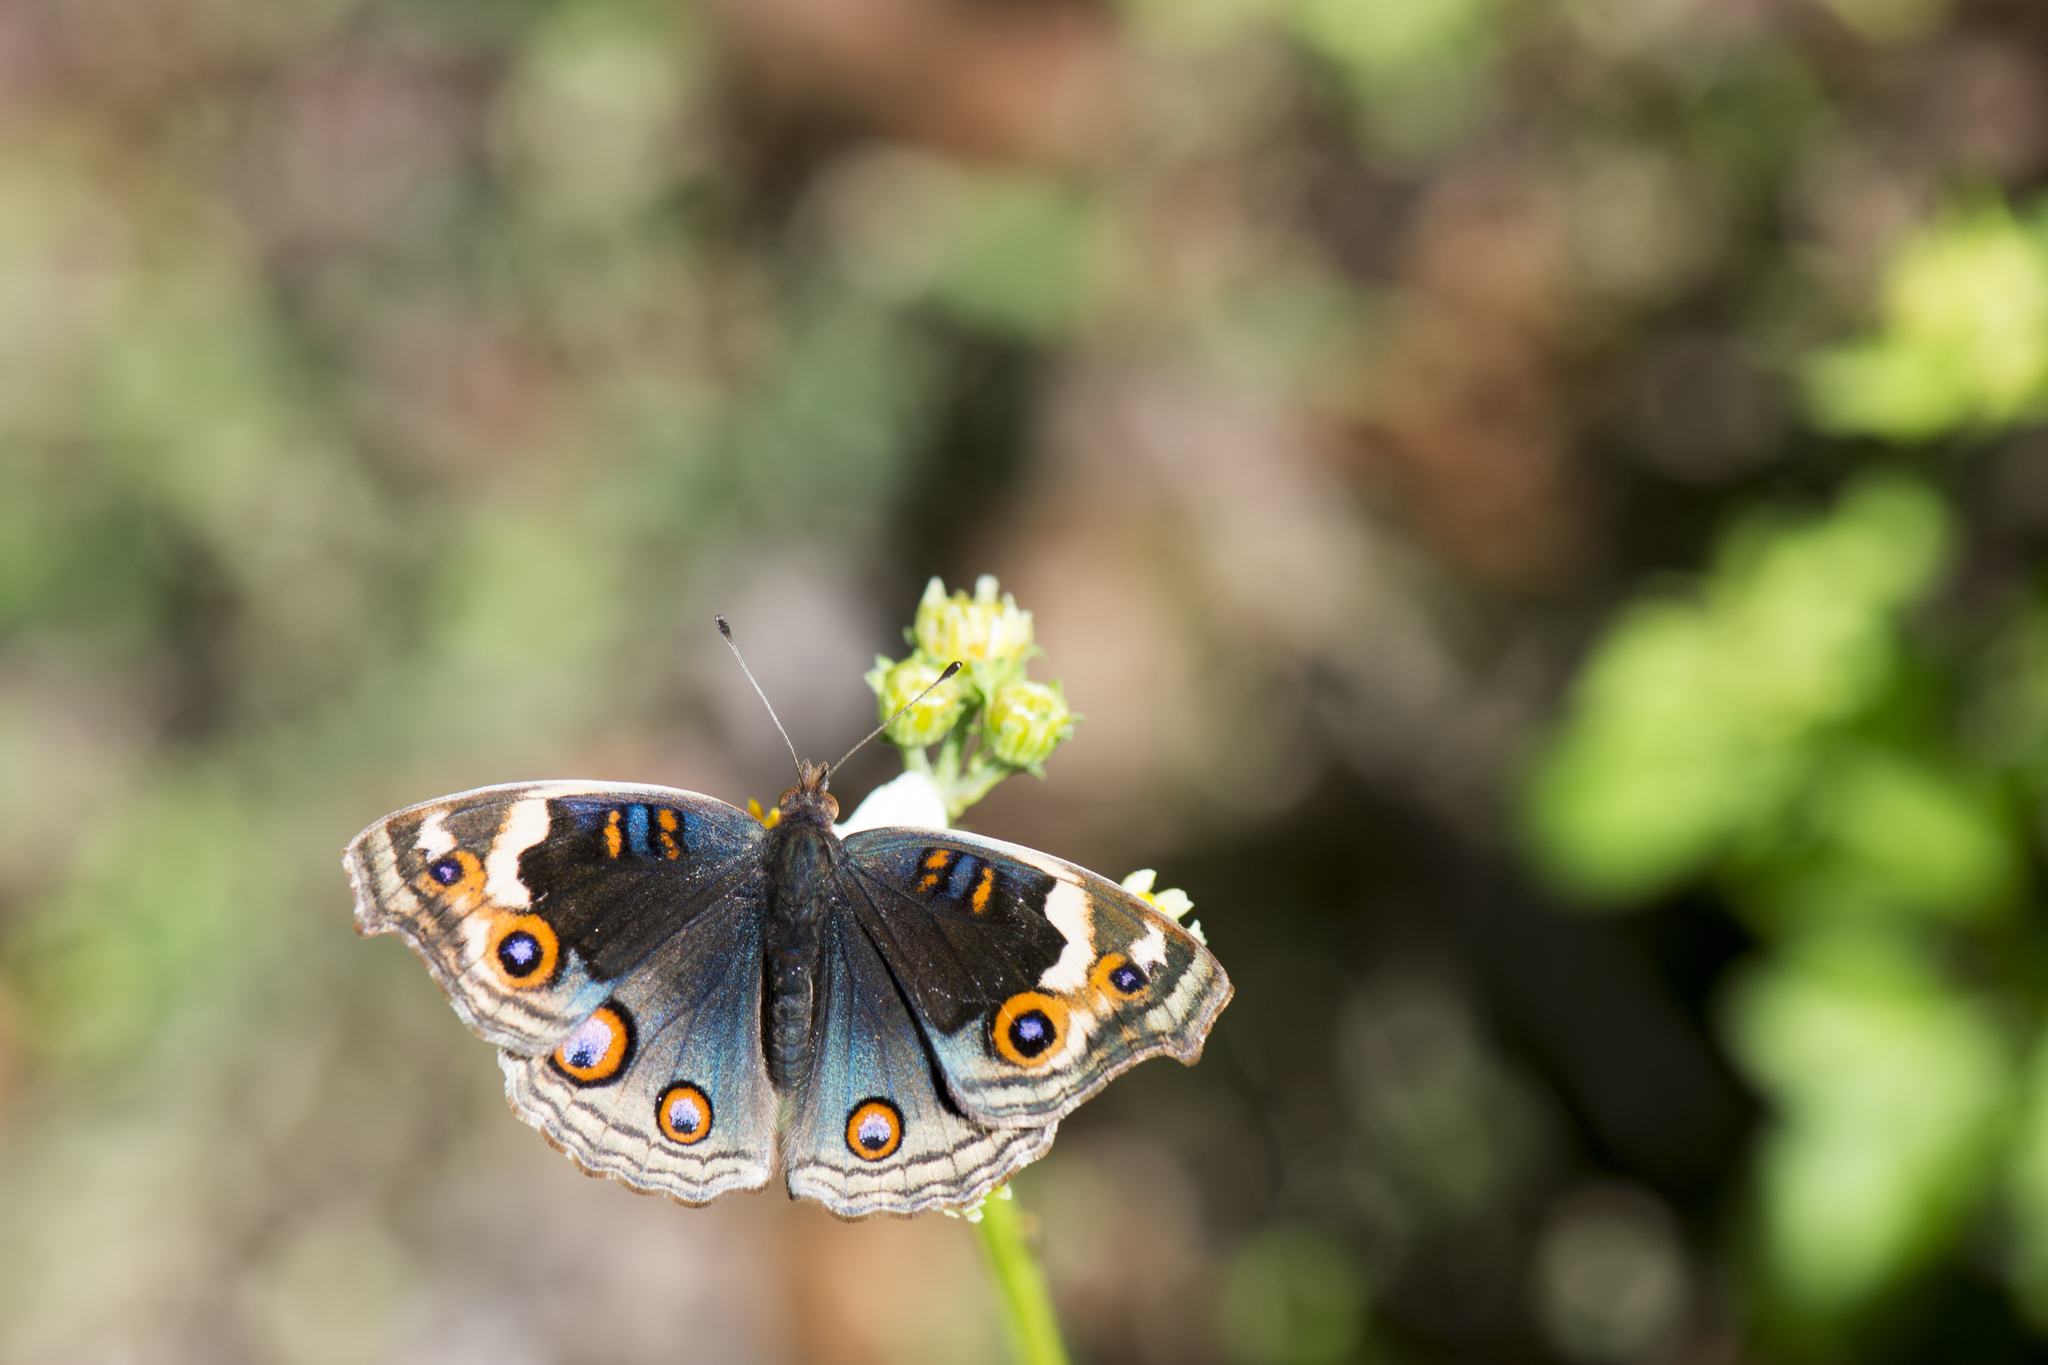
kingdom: Animalia
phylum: Arthropoda
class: Insecta
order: Lepidoptera
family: Nymphalidae
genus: Junonia
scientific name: Junonia orithya
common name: Blue pansy
